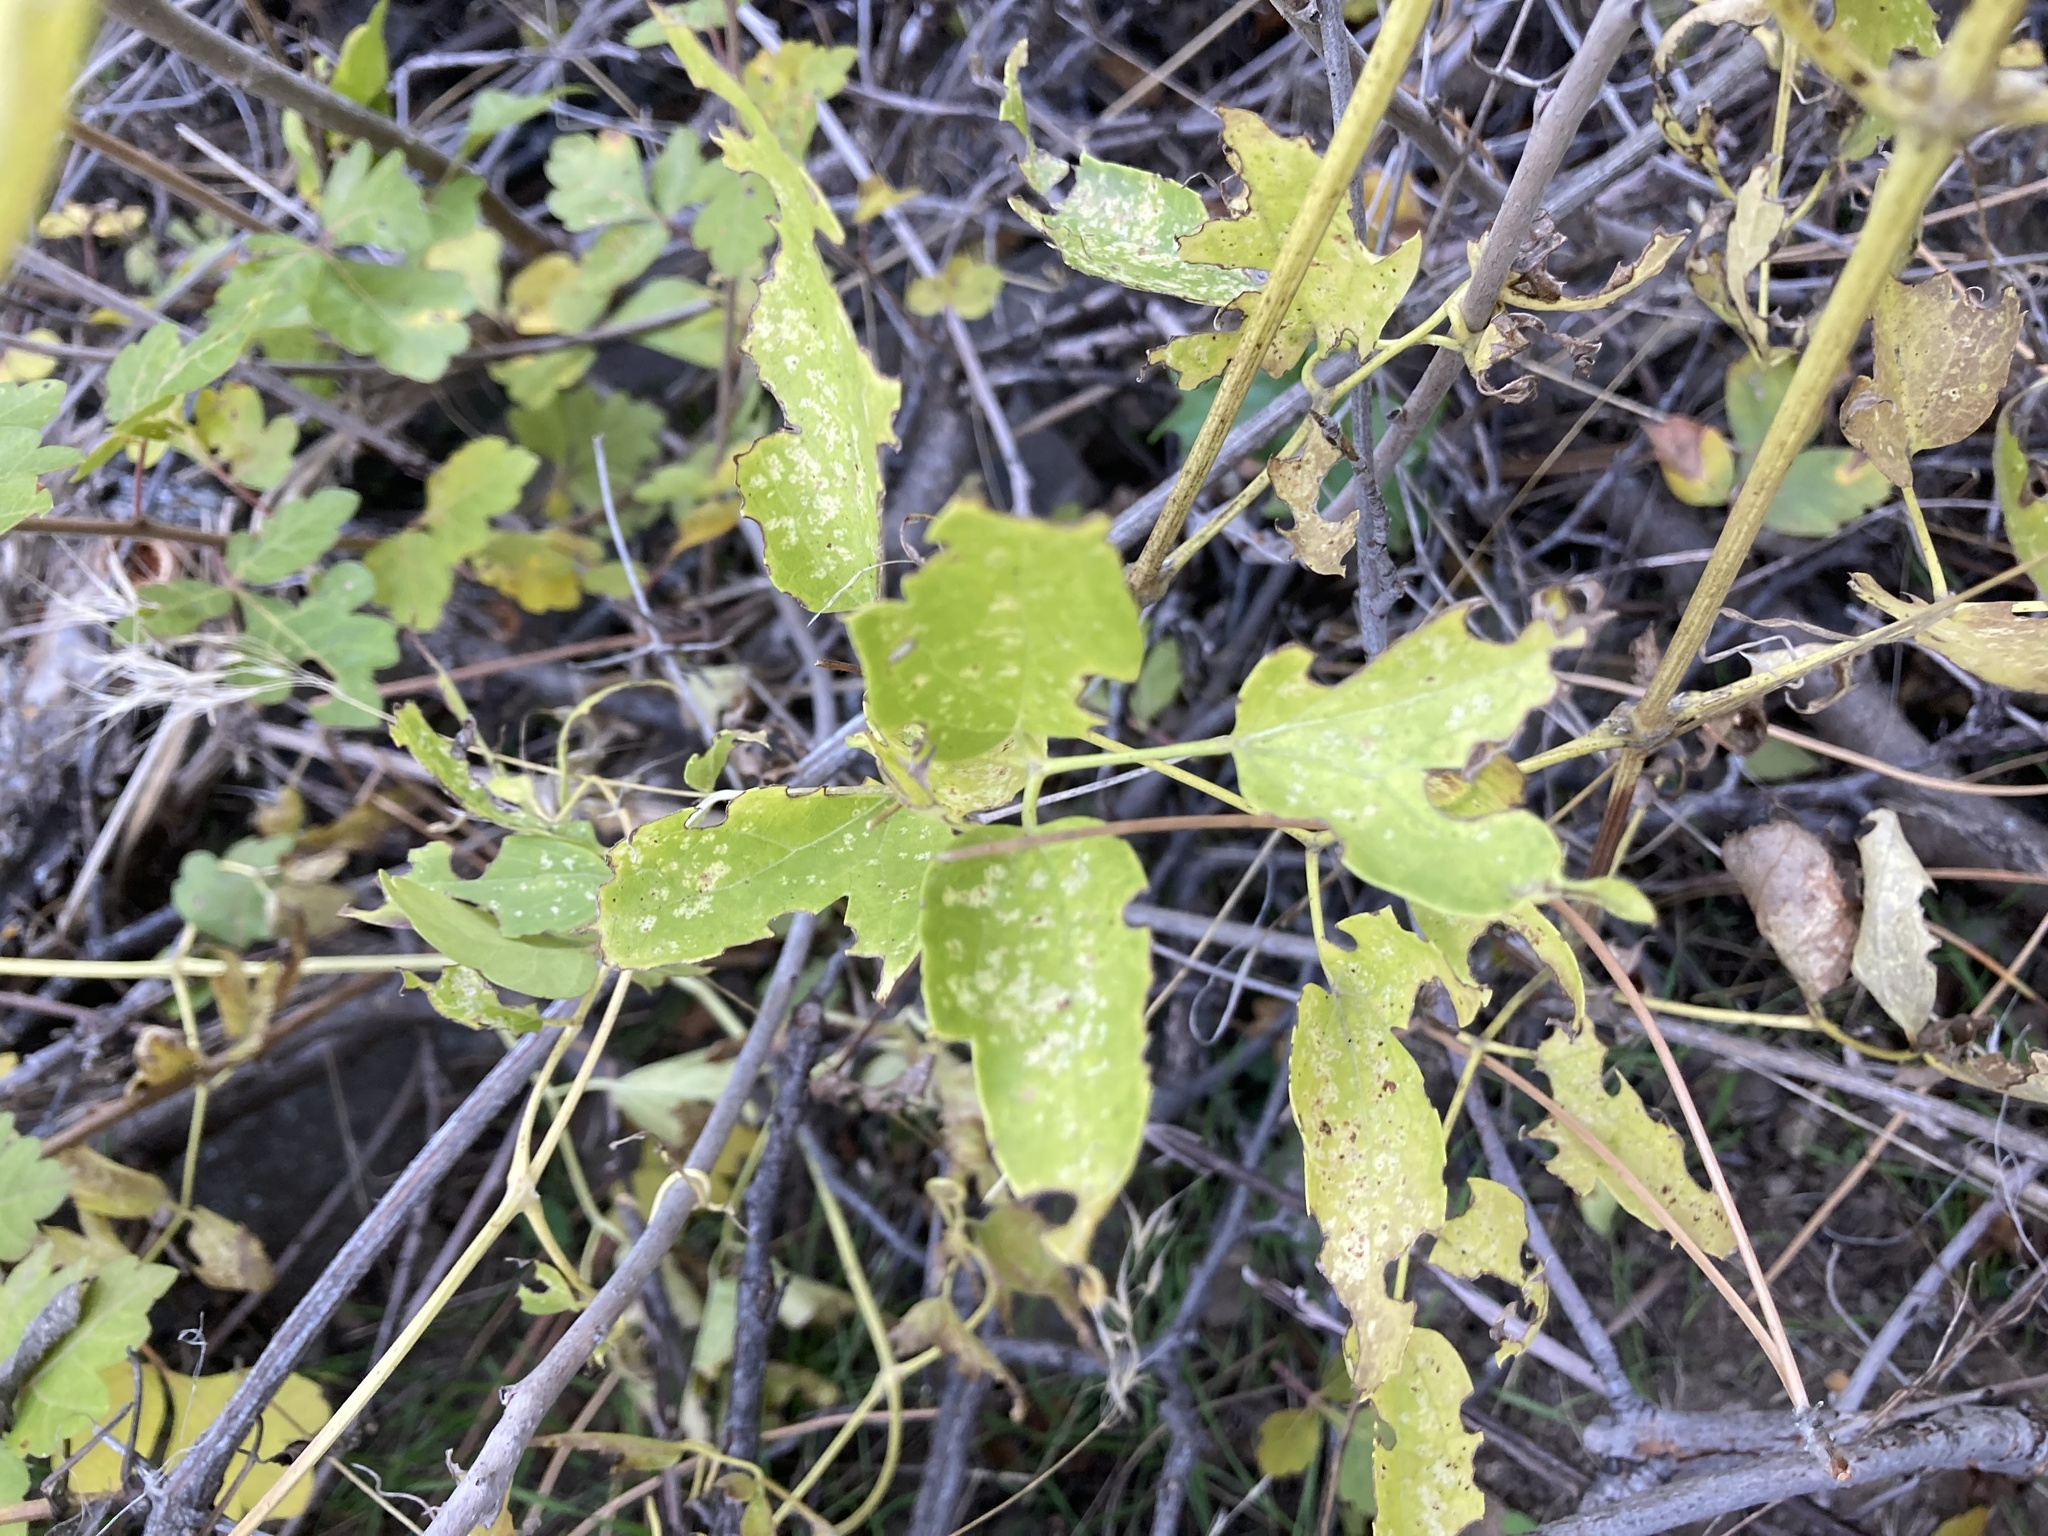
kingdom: Plantae
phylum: Tracheophyta
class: Magnoliopsida
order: Ranunculales
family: Ranunculaceae
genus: Clematis
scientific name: Clematis ligusticifolia
